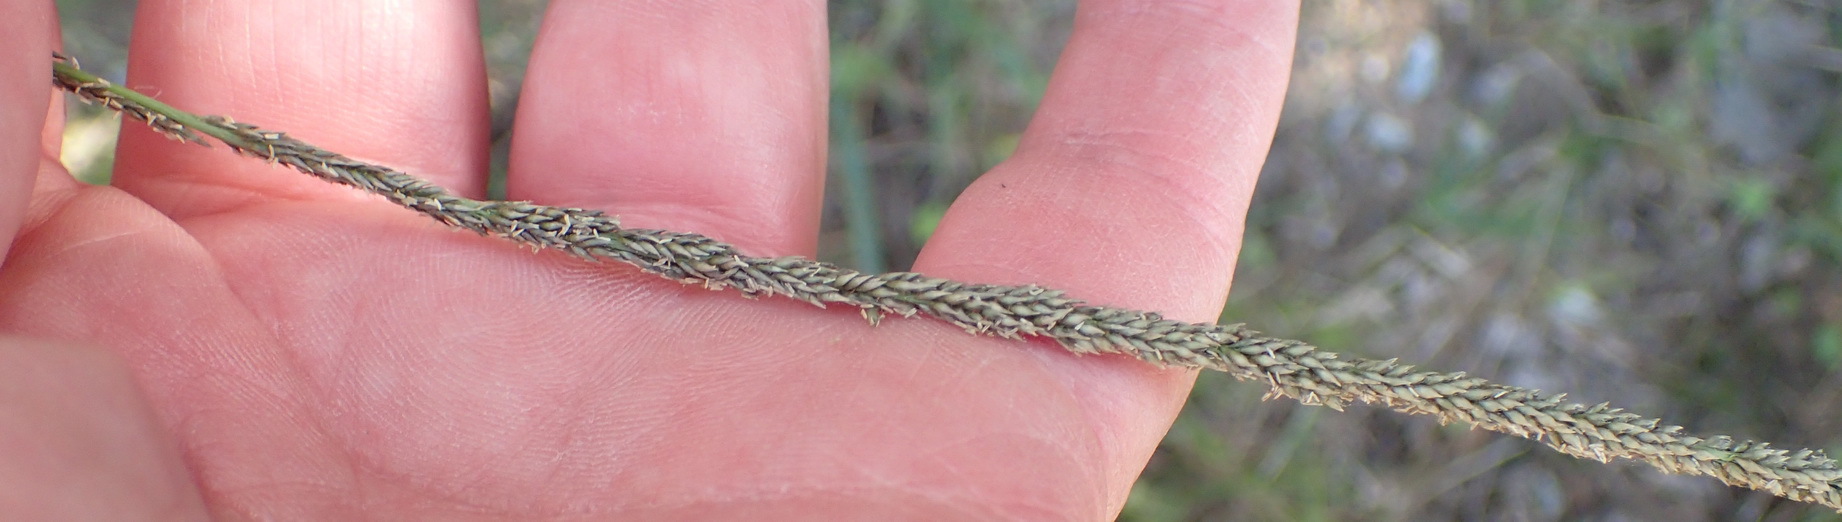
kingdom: Plantae
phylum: Tracheophyta
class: Liliopsida
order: Poales
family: Poaceae
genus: Sporobolus
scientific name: Sporobolus africanus
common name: African dropseed
